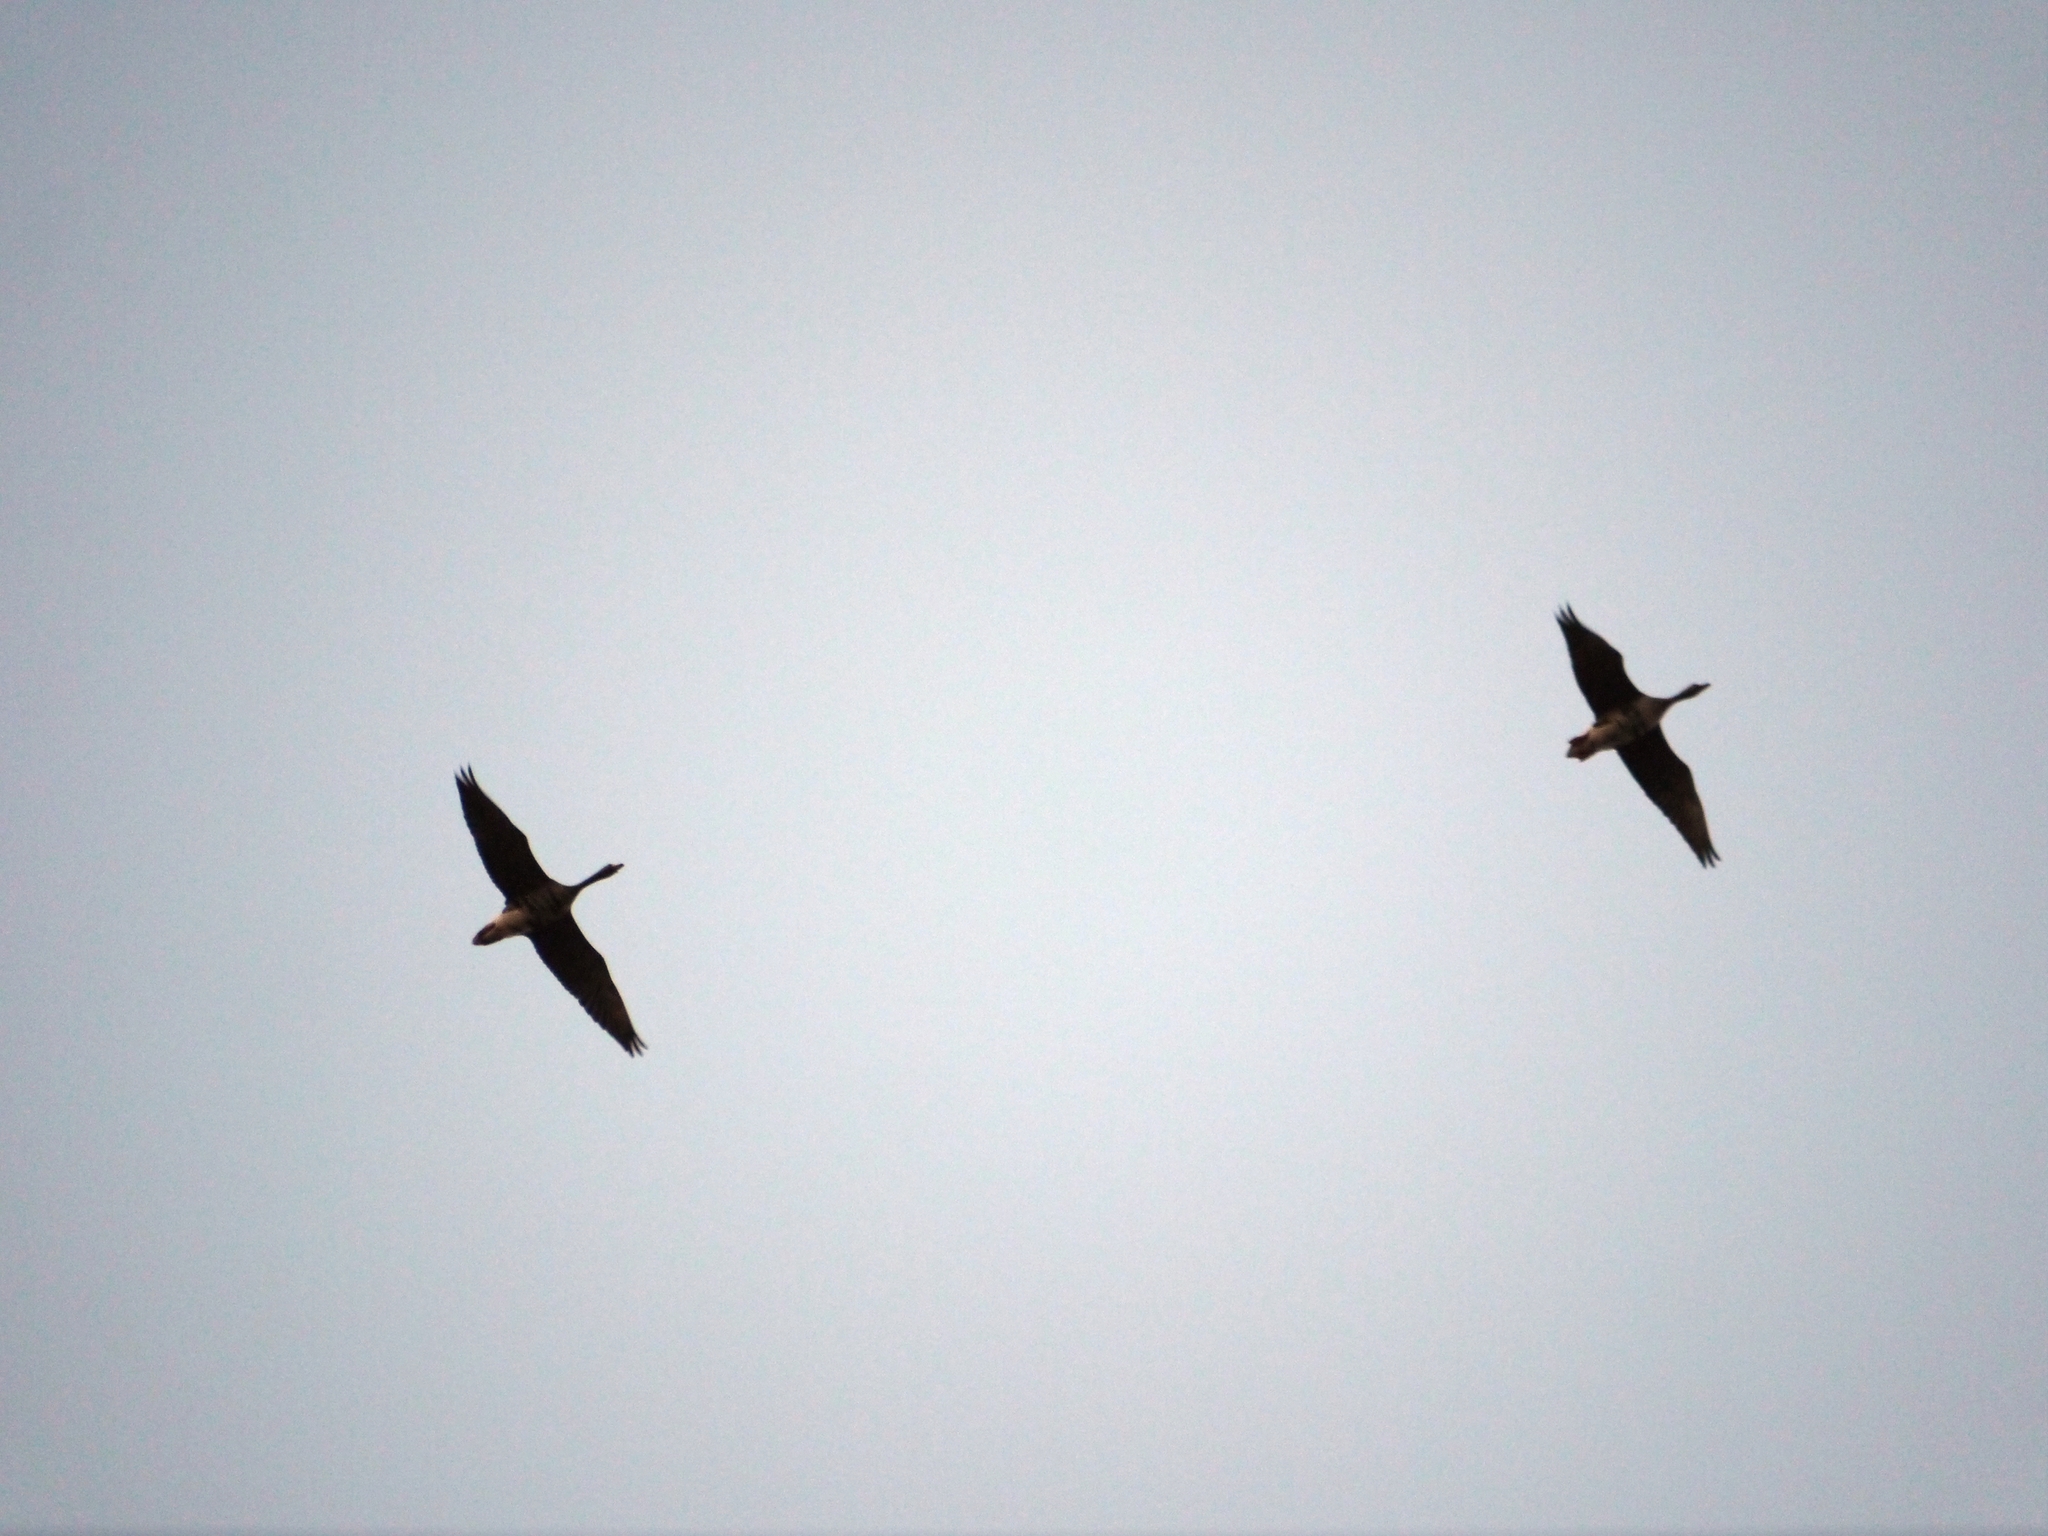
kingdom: Animalia
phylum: Chordata
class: Aves
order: Anseriformes
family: Anatidae
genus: Anser
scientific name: Anser albifrons
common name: Greater white-fronted goose
